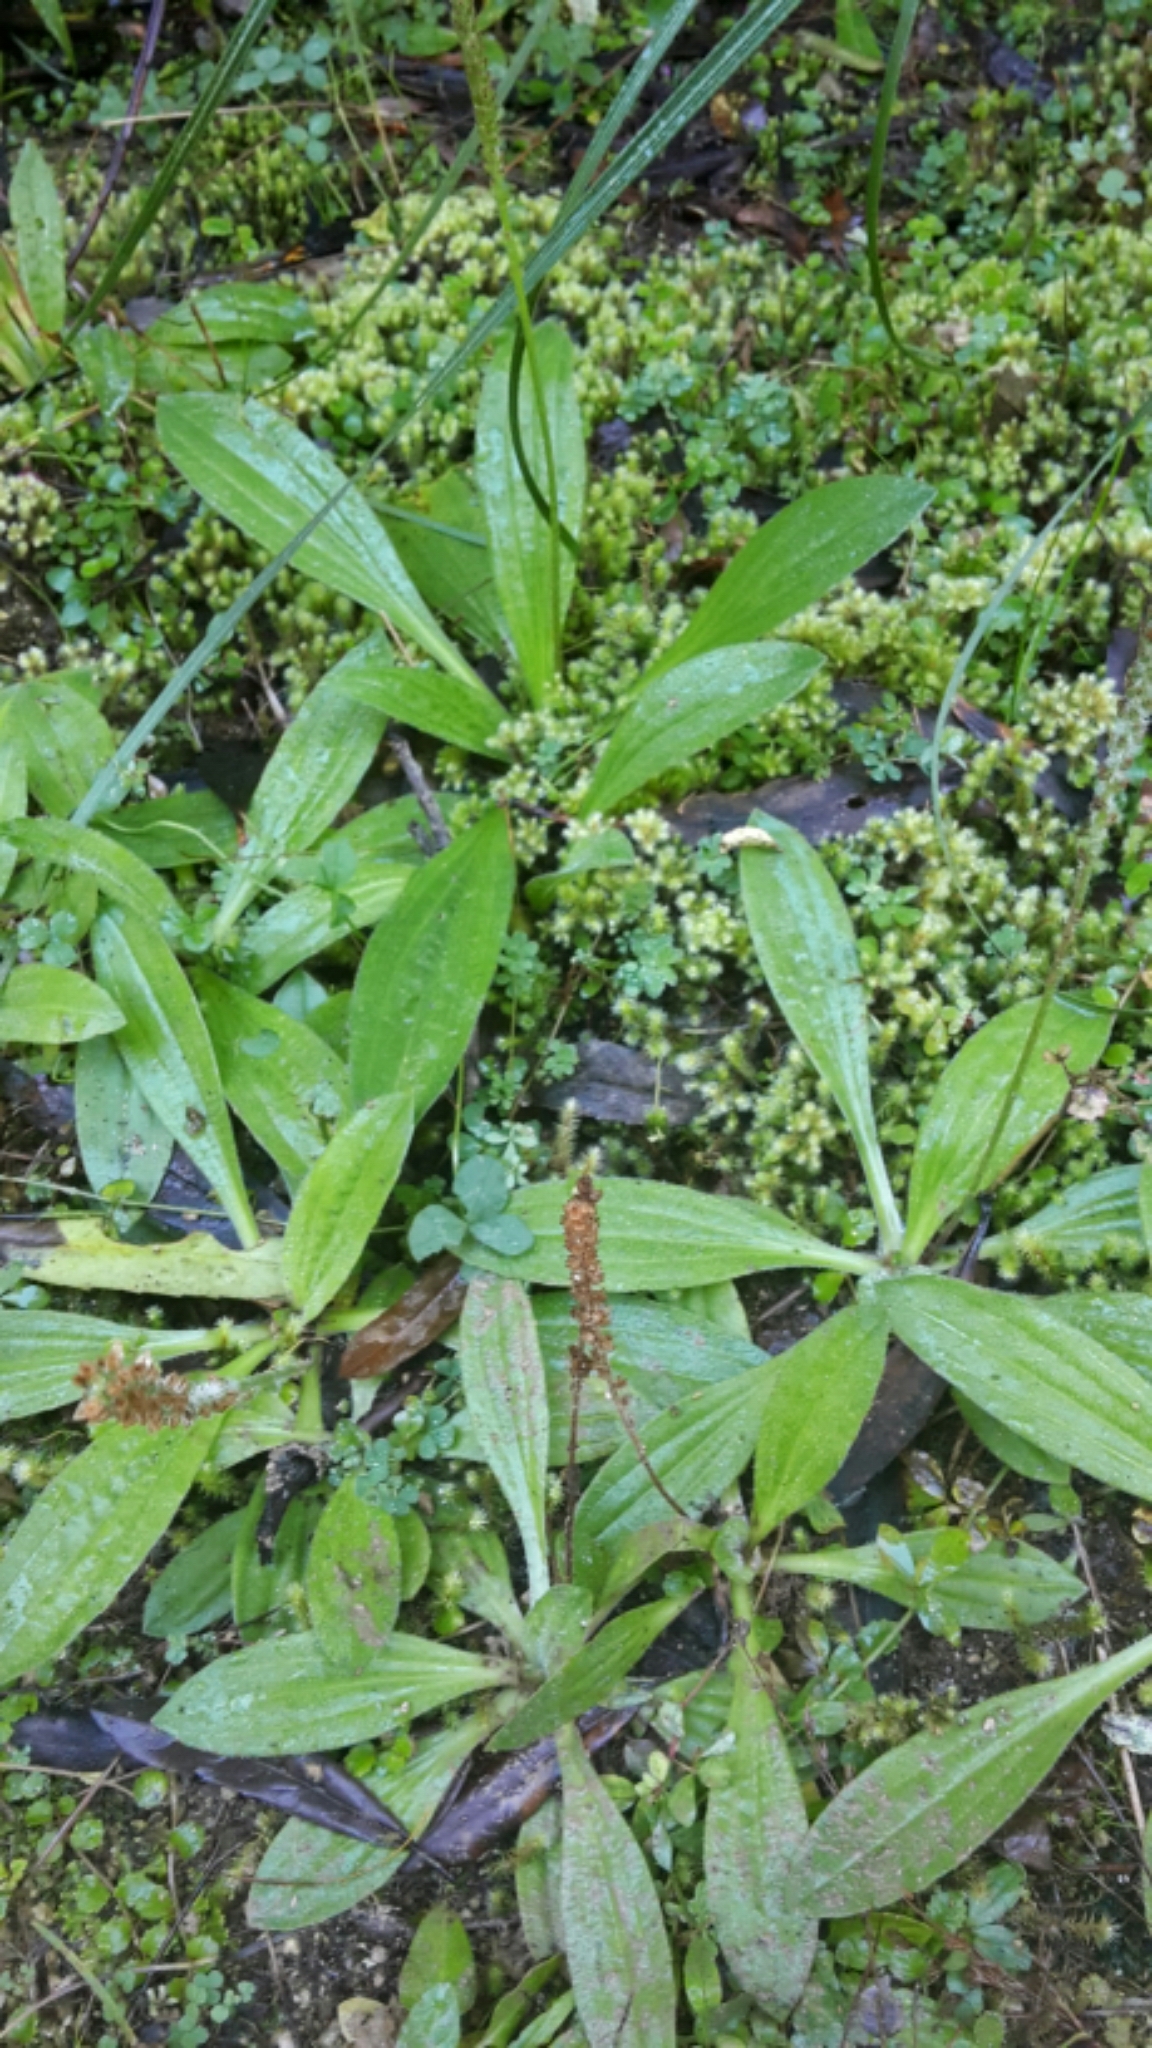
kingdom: Plantae
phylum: Tracheophyta
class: Magnoliopsida
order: Lamiales
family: Plantaginaceae
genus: Plantago
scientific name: Plantago lanceolata
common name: Ribwort plantain
